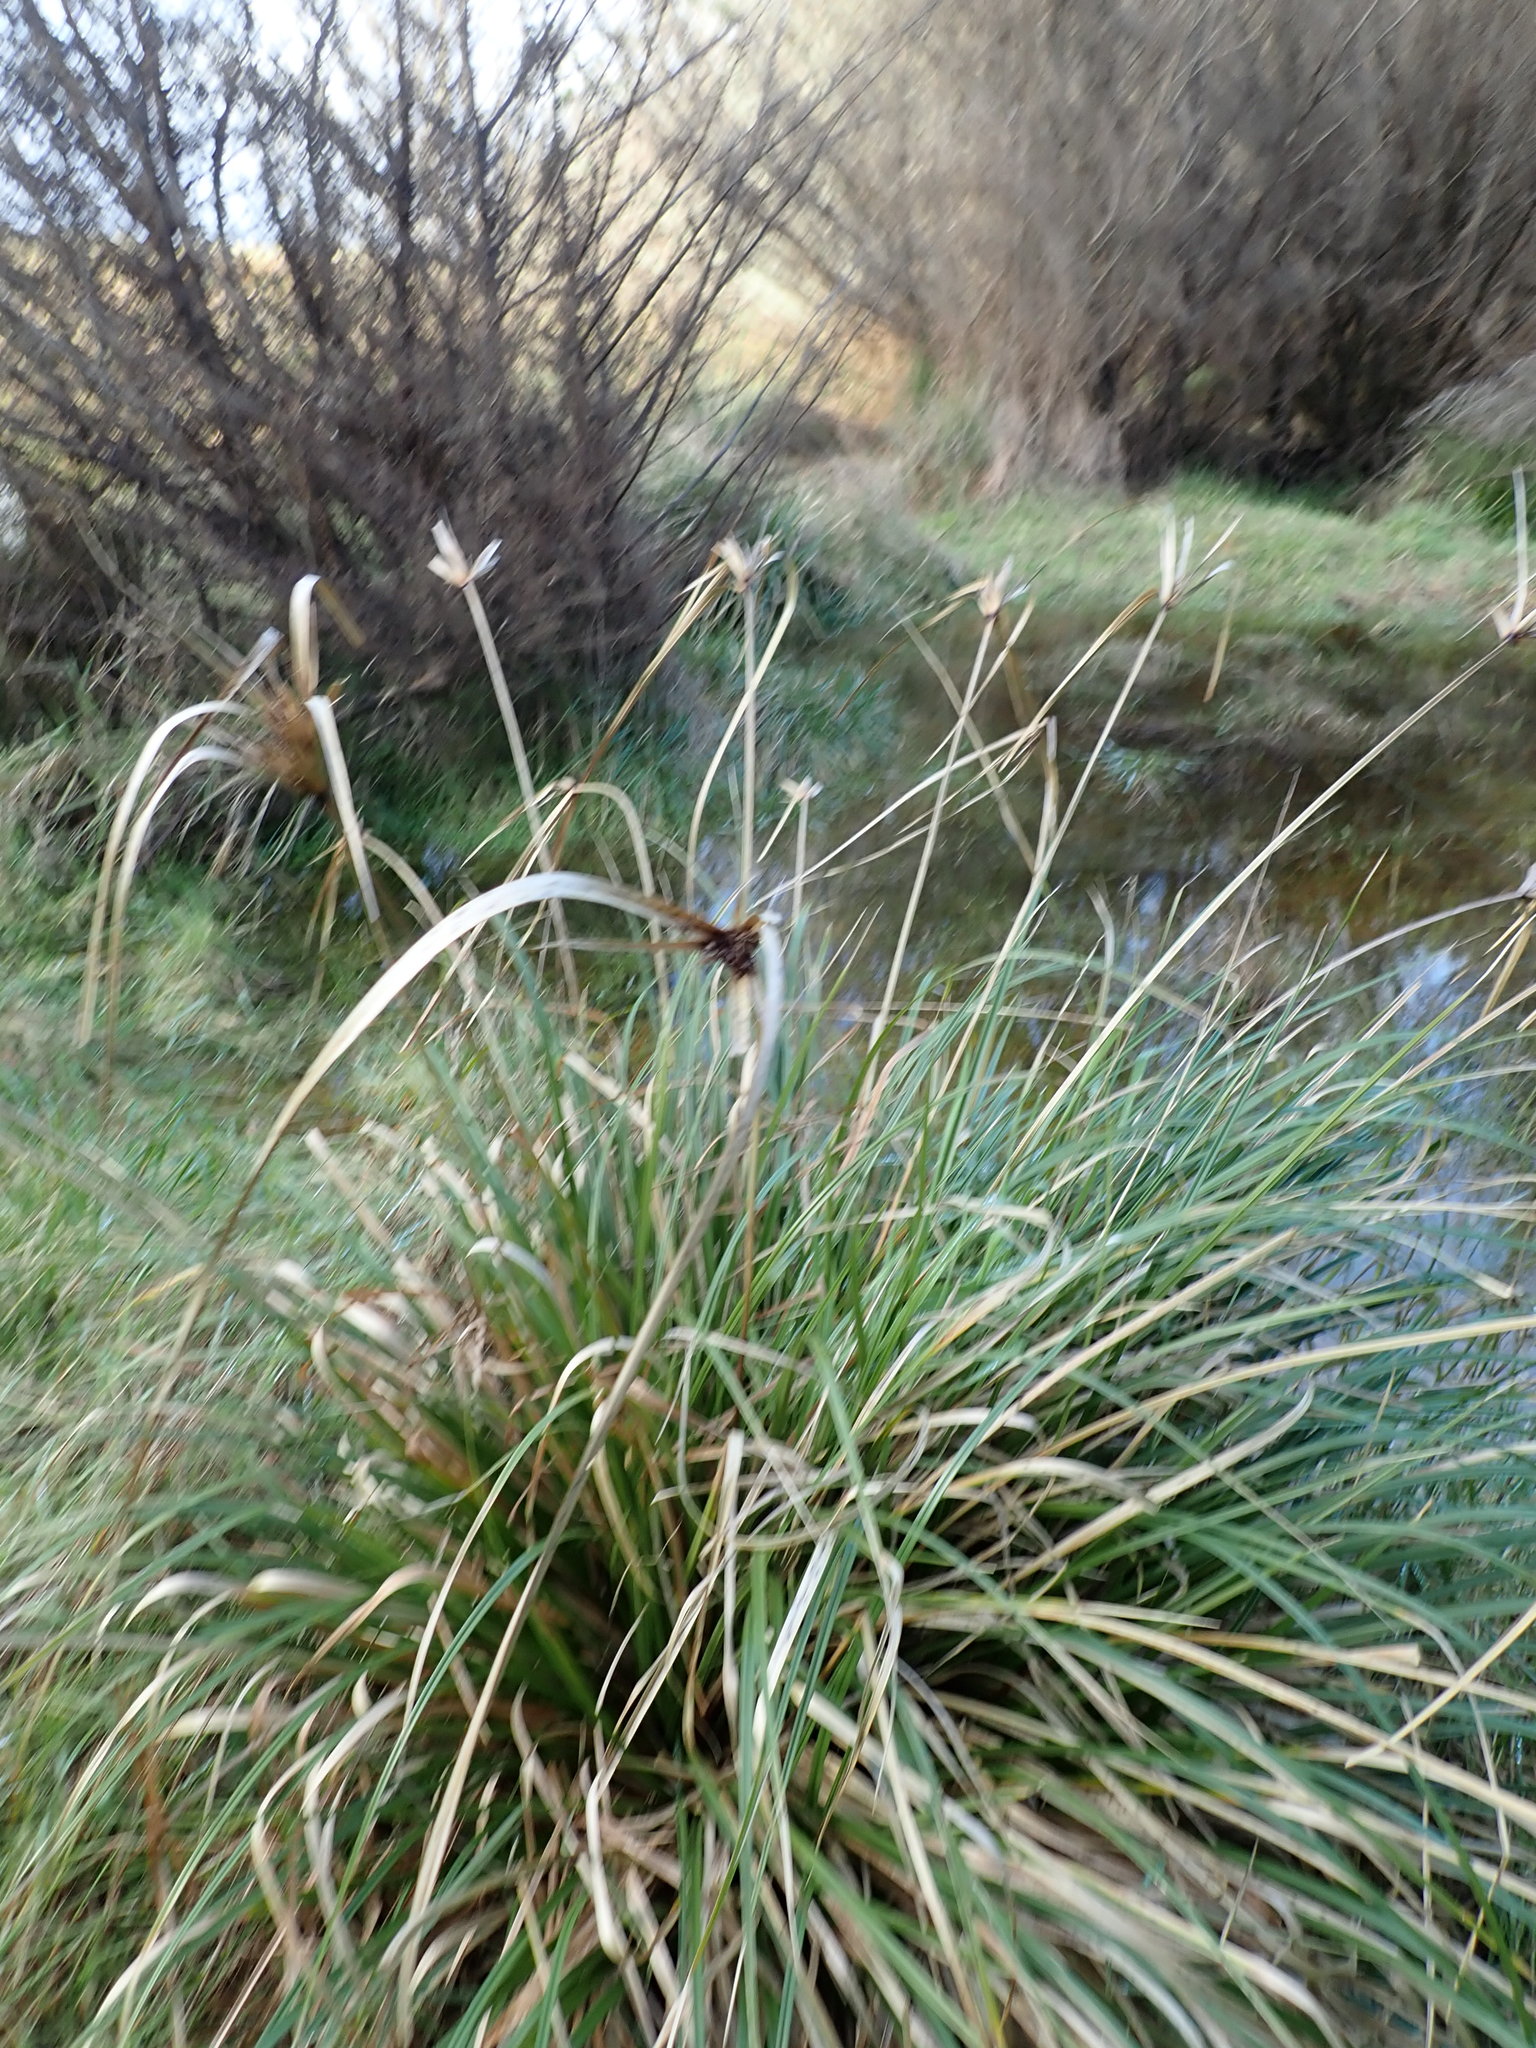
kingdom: Plantae
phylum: Tracheophyta
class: Liliopsida
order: Poales
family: Cyperaceae
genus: Cyperus
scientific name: Cyperus ustulatus
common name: Giant umbrella-sedge
